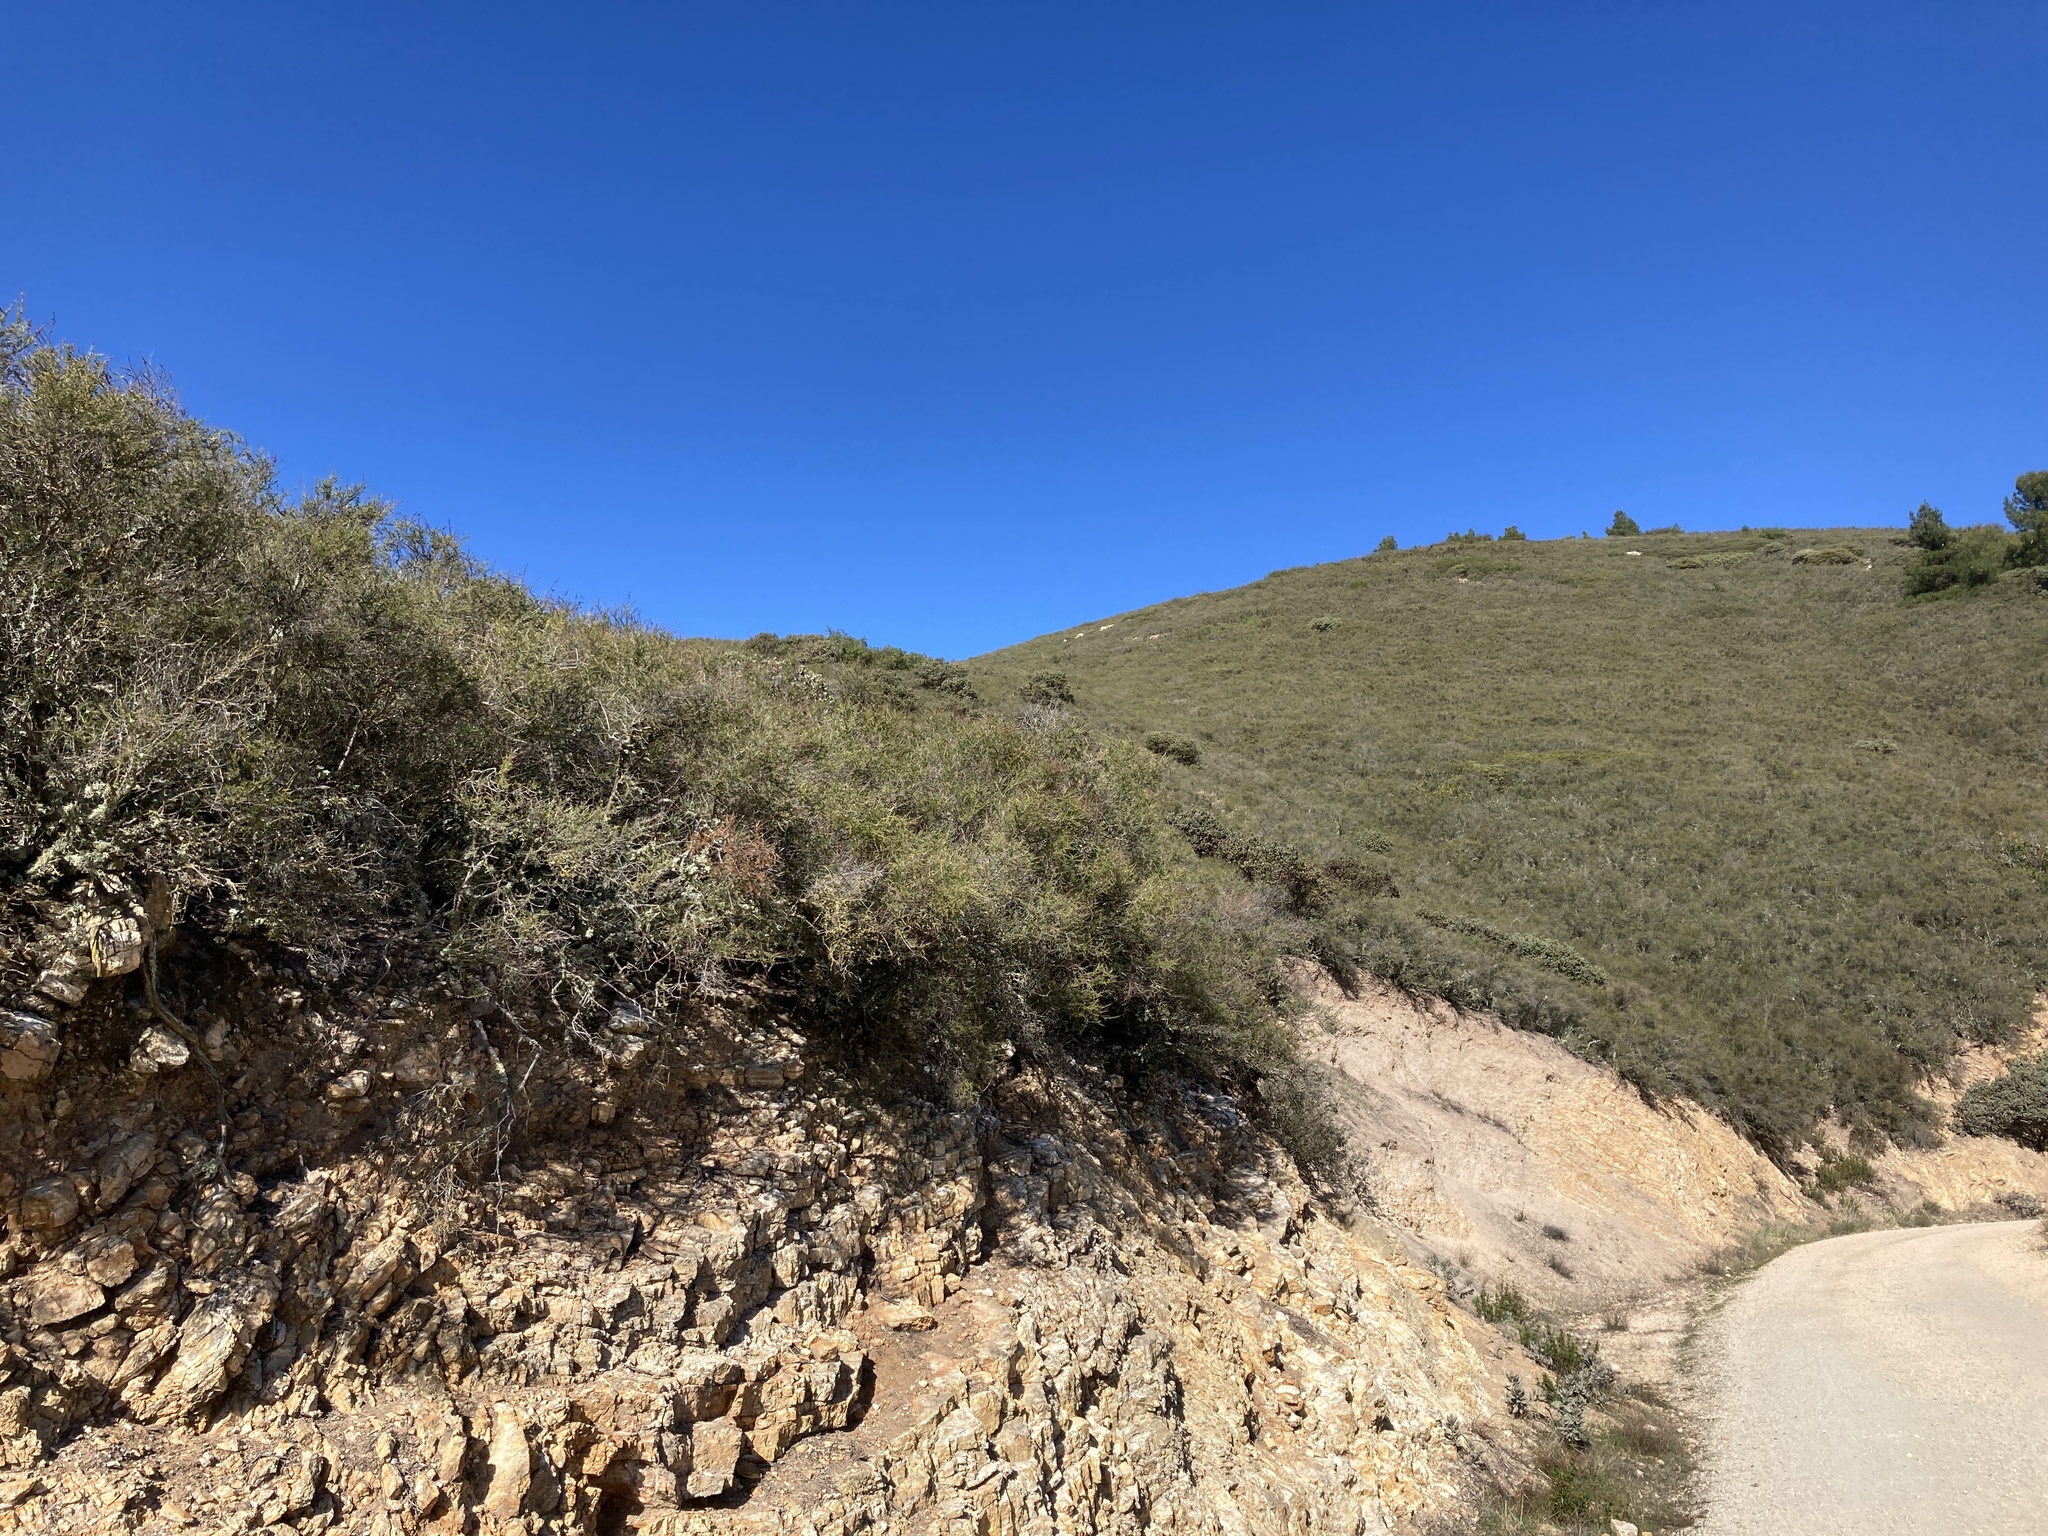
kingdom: Plantae
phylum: Tracheophyta
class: Magnoliopsida
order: Rosales
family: Rosaceae
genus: Adenostoma
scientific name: Adenostoma fasciculatum
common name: Chamise
